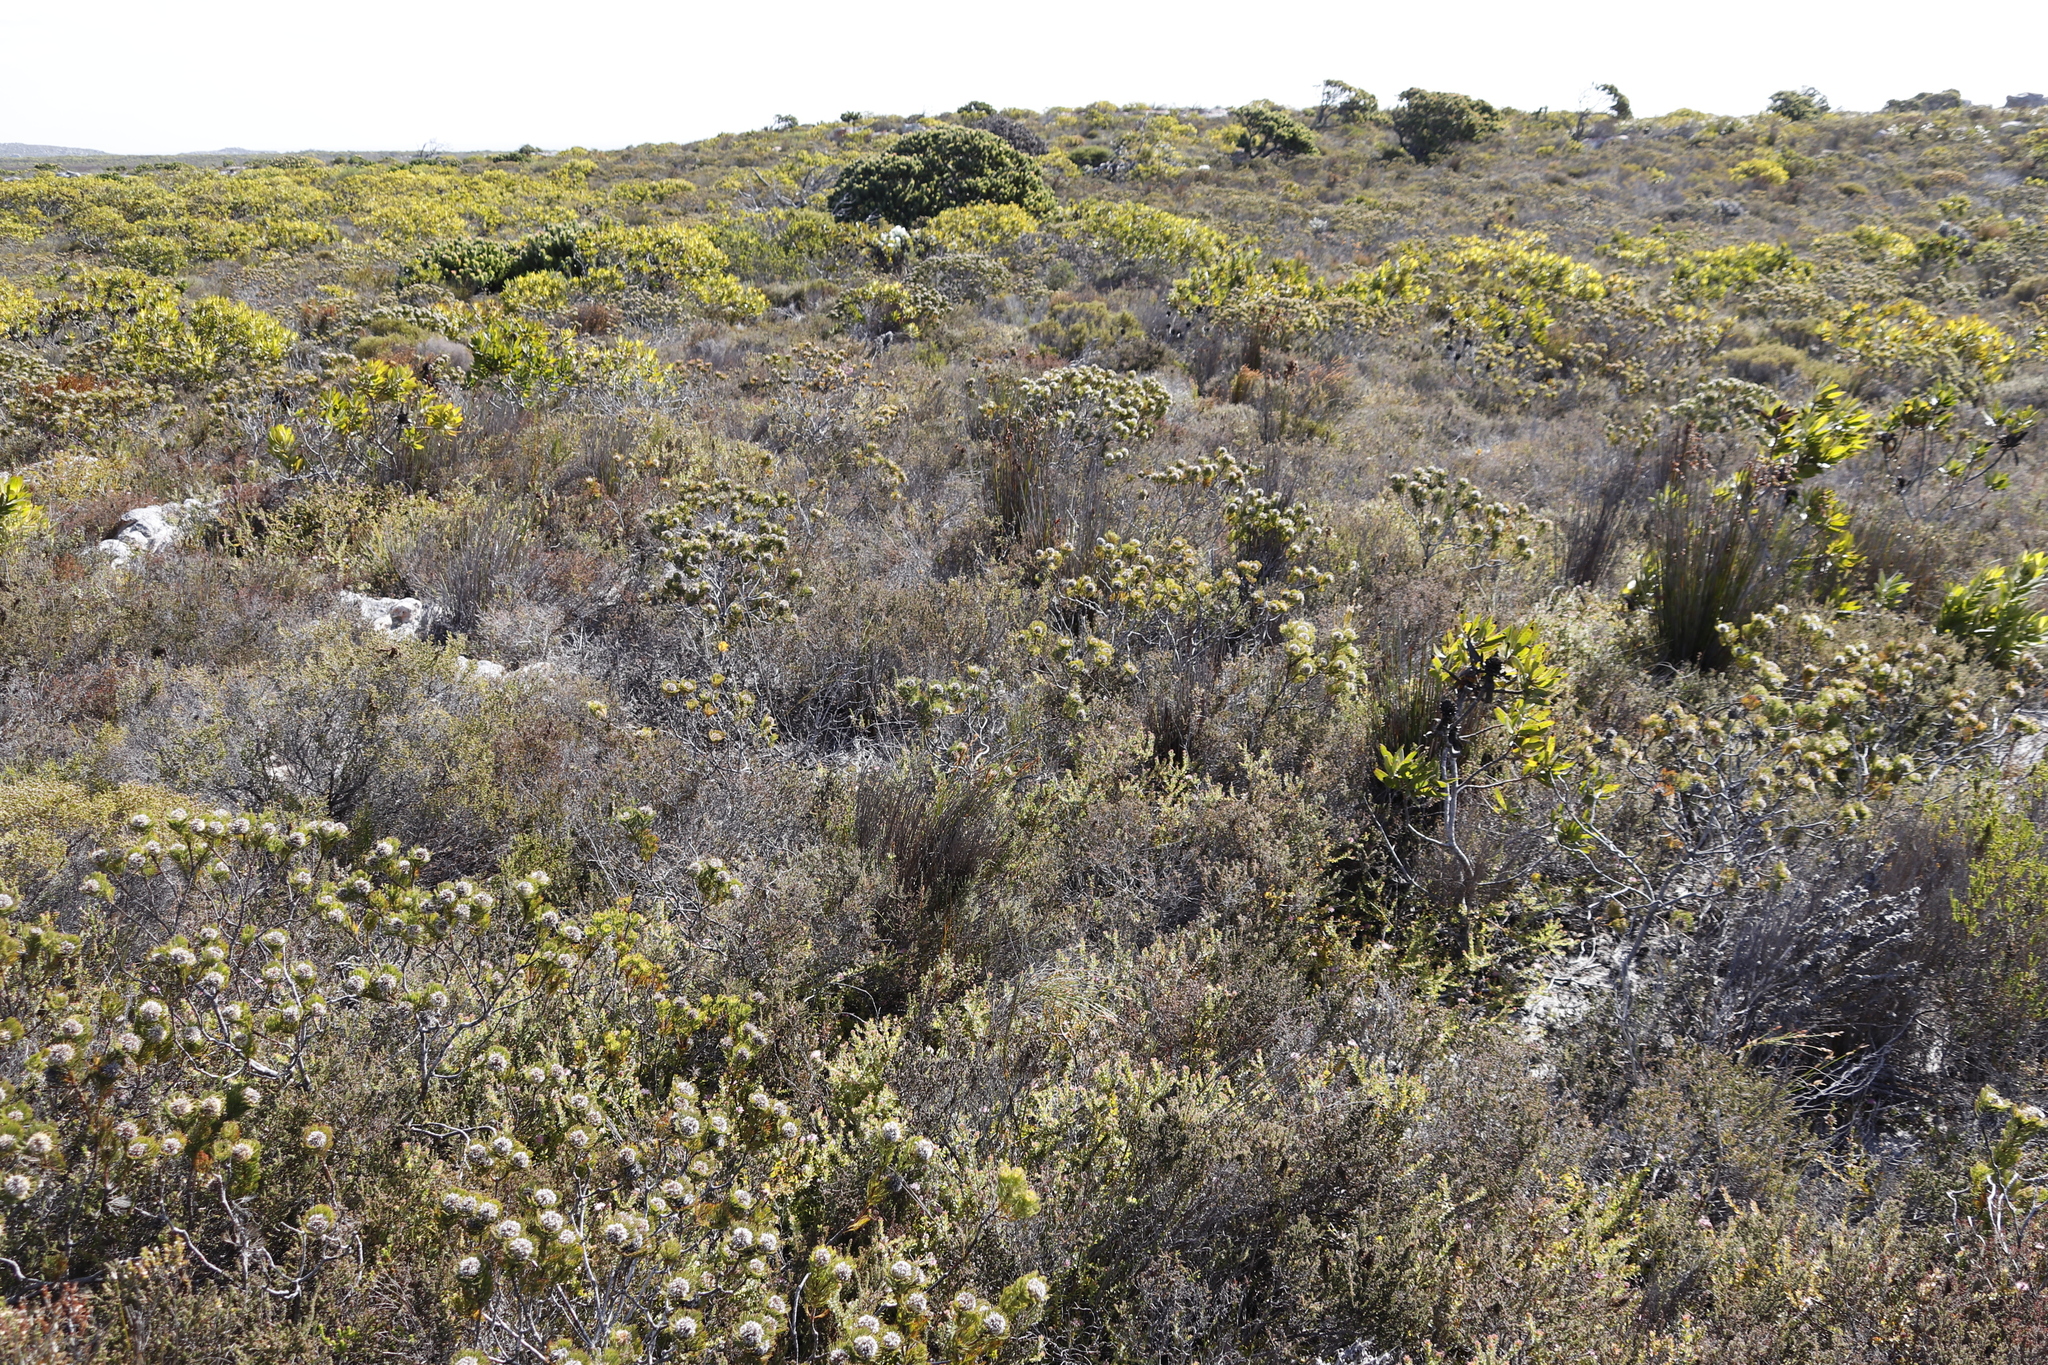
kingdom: Plantae
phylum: Tracheophyta
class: Magnoliopsida
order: Proteales
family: Proteaceae
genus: Serruria
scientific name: Serruria villosa
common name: Golden spiderhead
